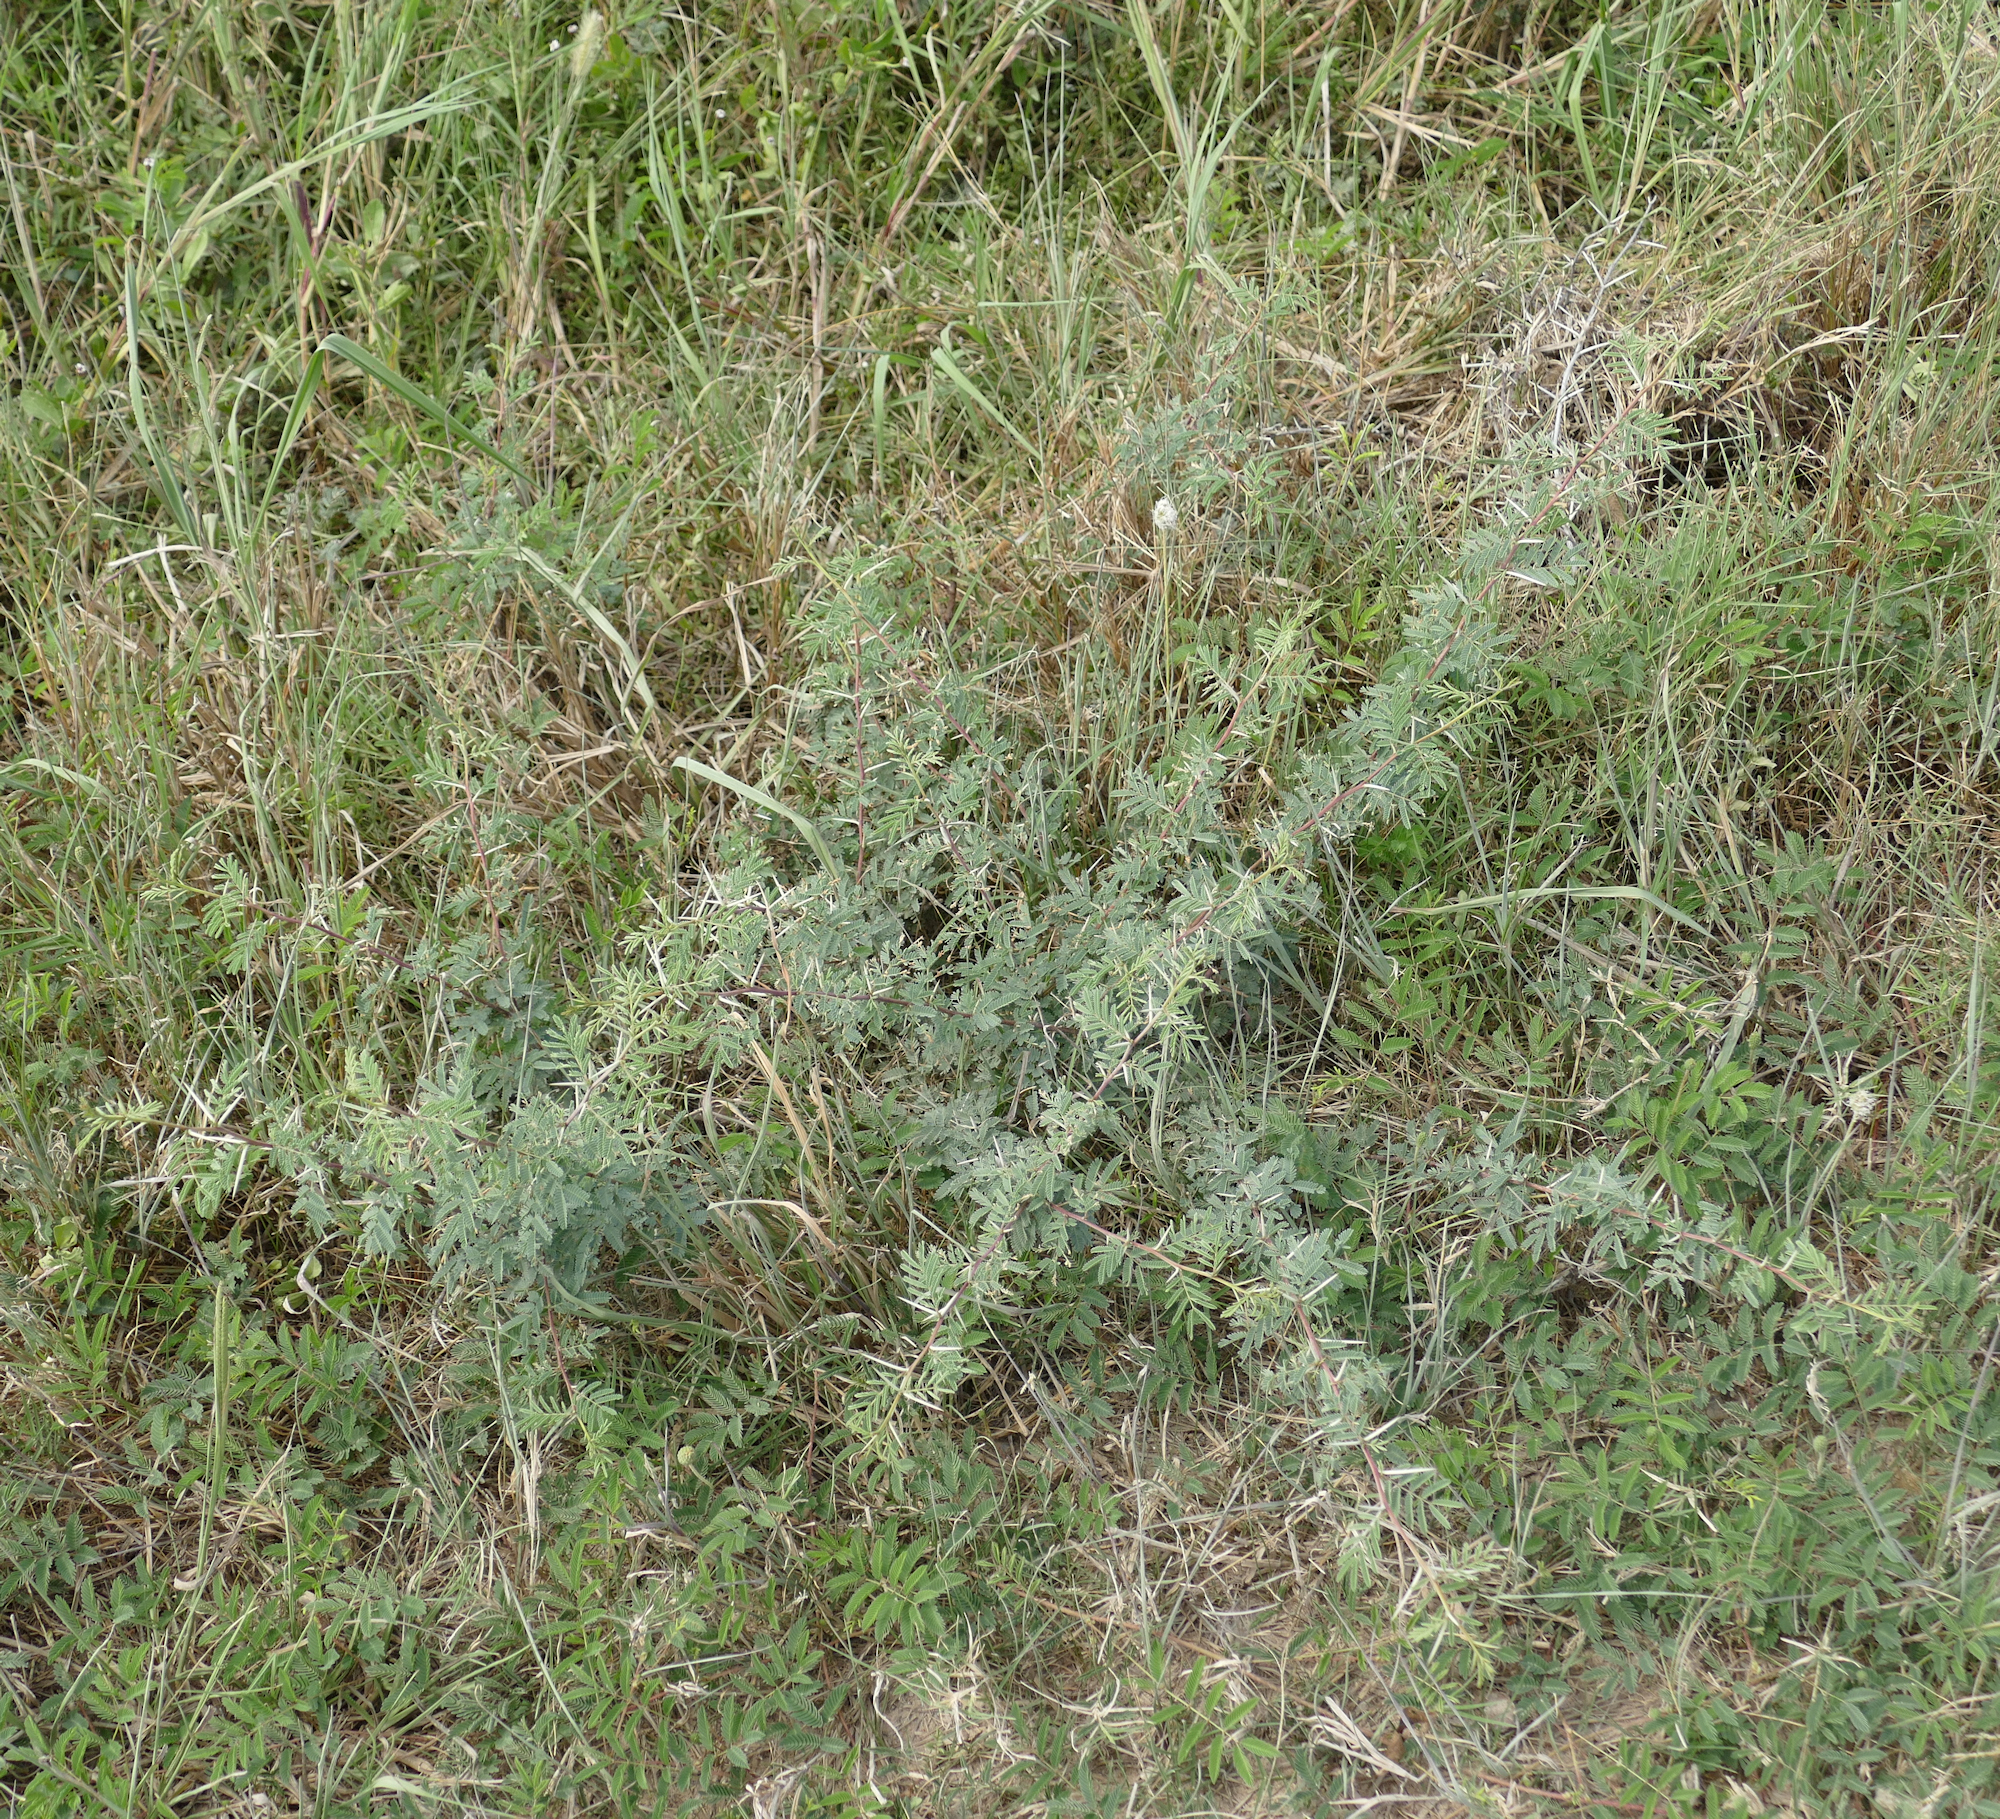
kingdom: Plantae
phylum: Tracheophyta
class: Magnoliopsida
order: Fabales
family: Fabaceae
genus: Vachellia
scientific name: Vachellia farnesiana
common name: Sweet acacia
